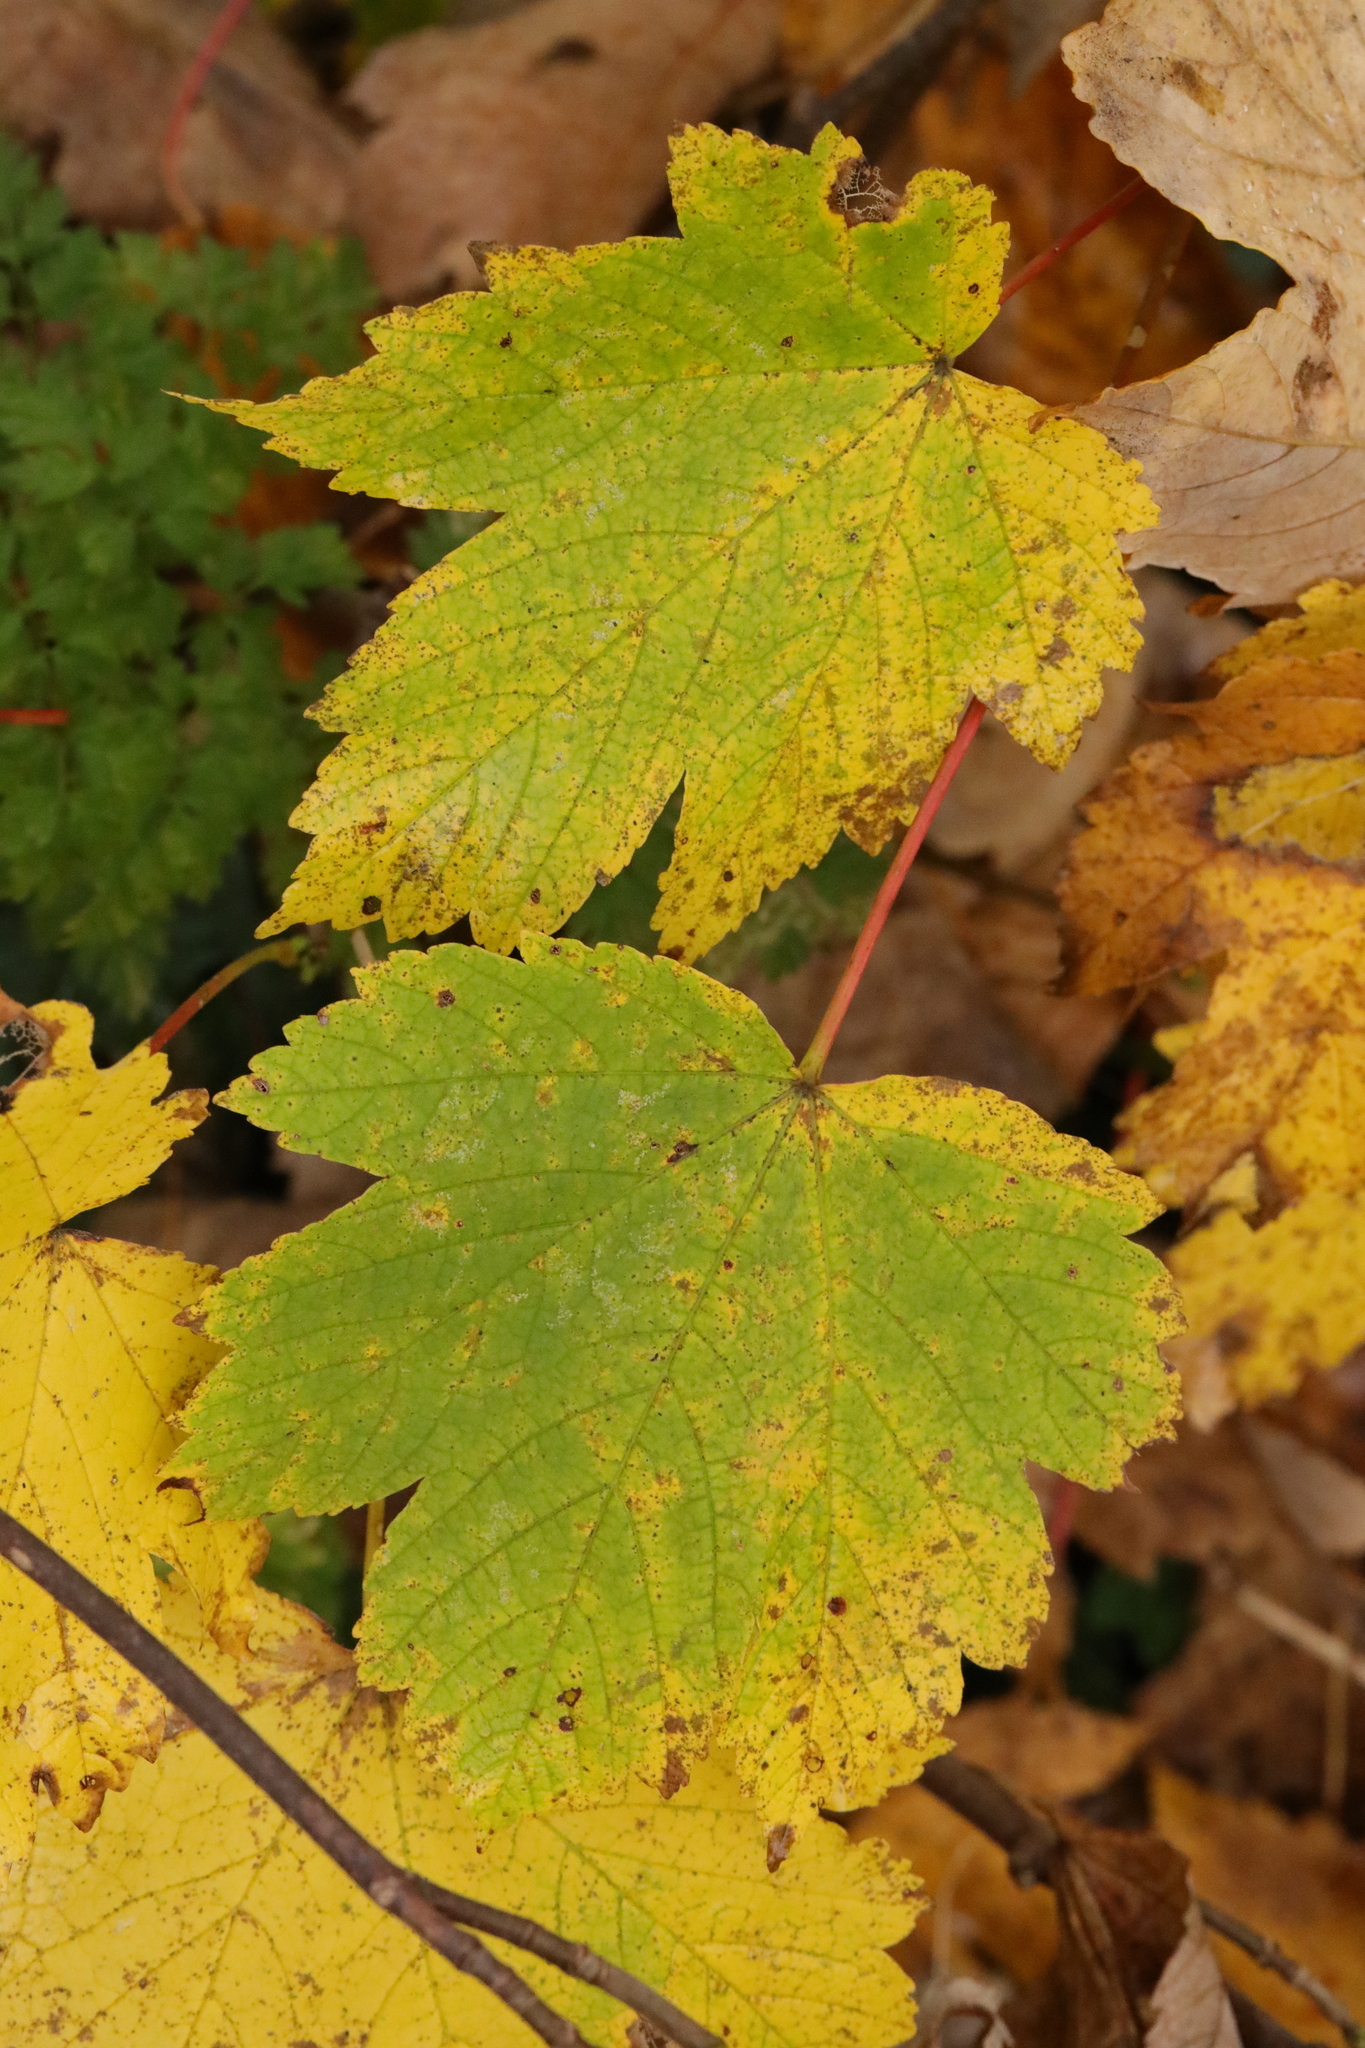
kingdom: Plantae
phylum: Tracheophyta
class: Magnoliopsida
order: Sapindales
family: Sapindaceae
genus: Acer
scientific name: Acer pseudoplatanus
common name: Sycamore
